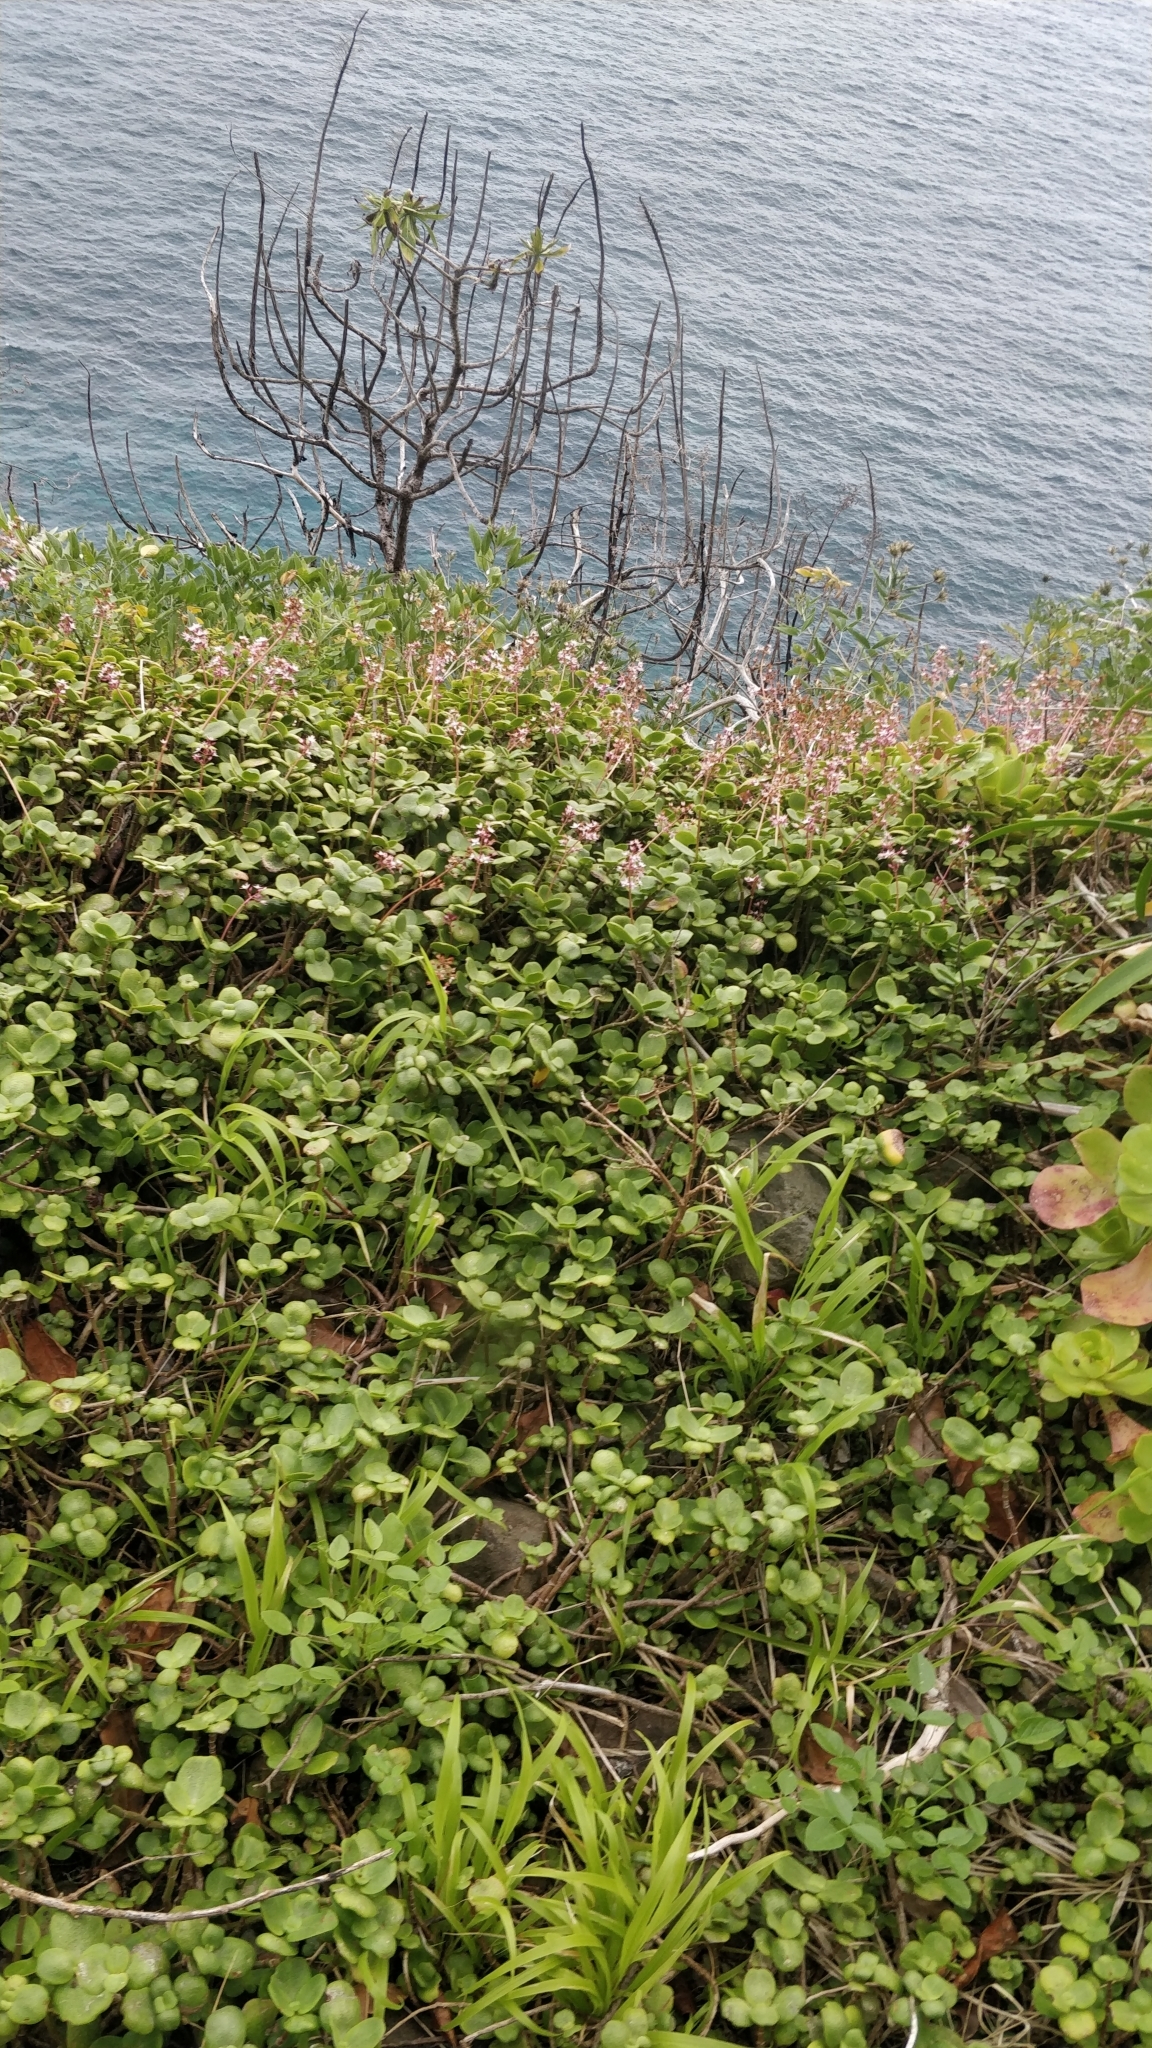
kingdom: Plantae
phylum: Tracheophyta
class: Magnoliopsida
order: Saxifragales
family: Crassulaceae
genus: Crassula
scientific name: Crassula multicava
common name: Cape province pygmyweed
